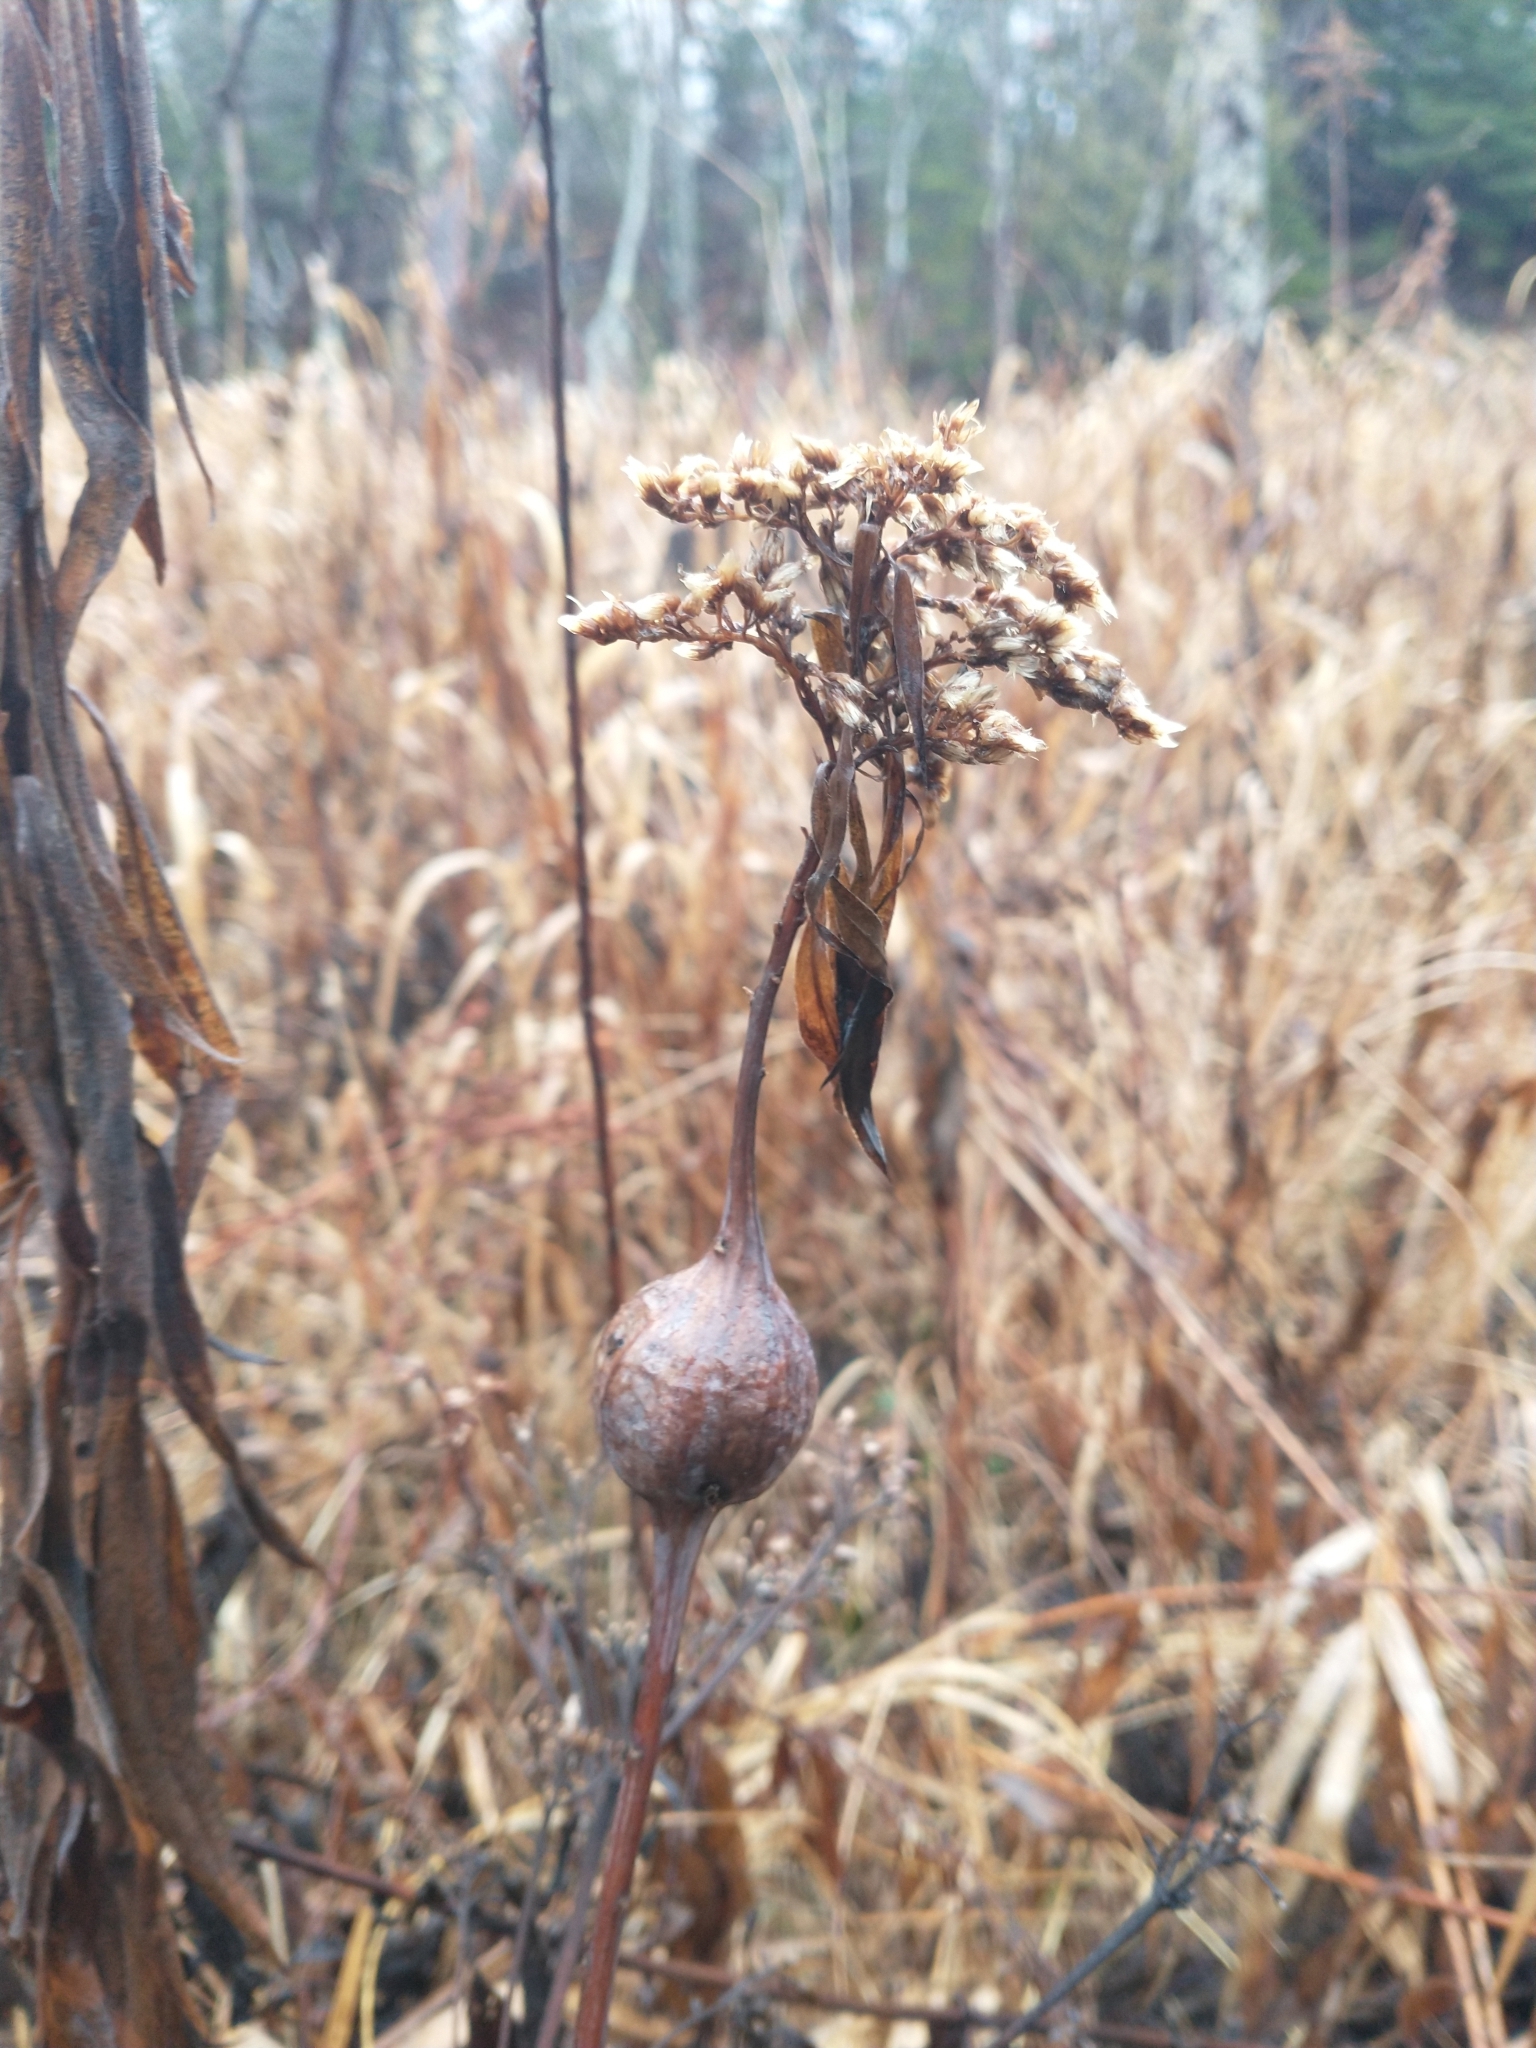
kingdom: Animalia
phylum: Arthropoda
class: Insecta
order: Diptera
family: Tephritidae
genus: Eurosta
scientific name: Eurosta solidaginis
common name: Goldenrod gall fly
